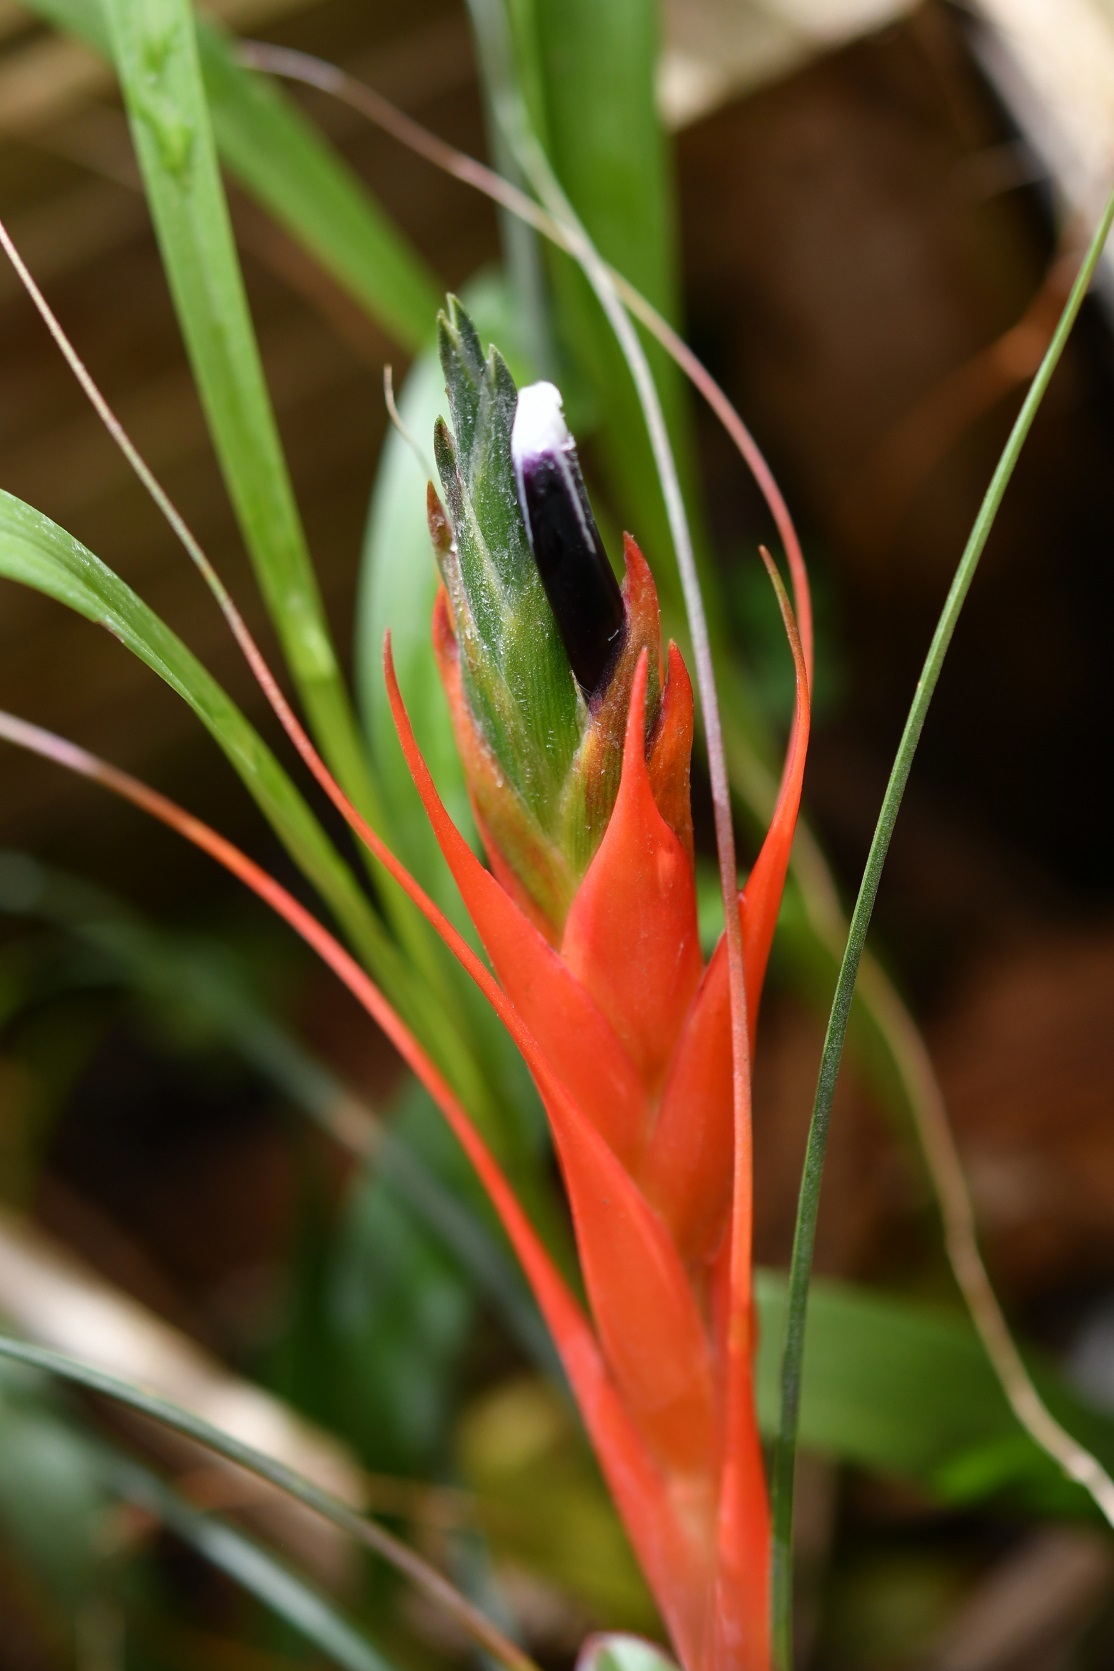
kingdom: Plantae
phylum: Tracheophyta
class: Liliopsida
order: Poales
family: Bromeliaceae
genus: Tillandsia
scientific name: Tillandsia punctulata
